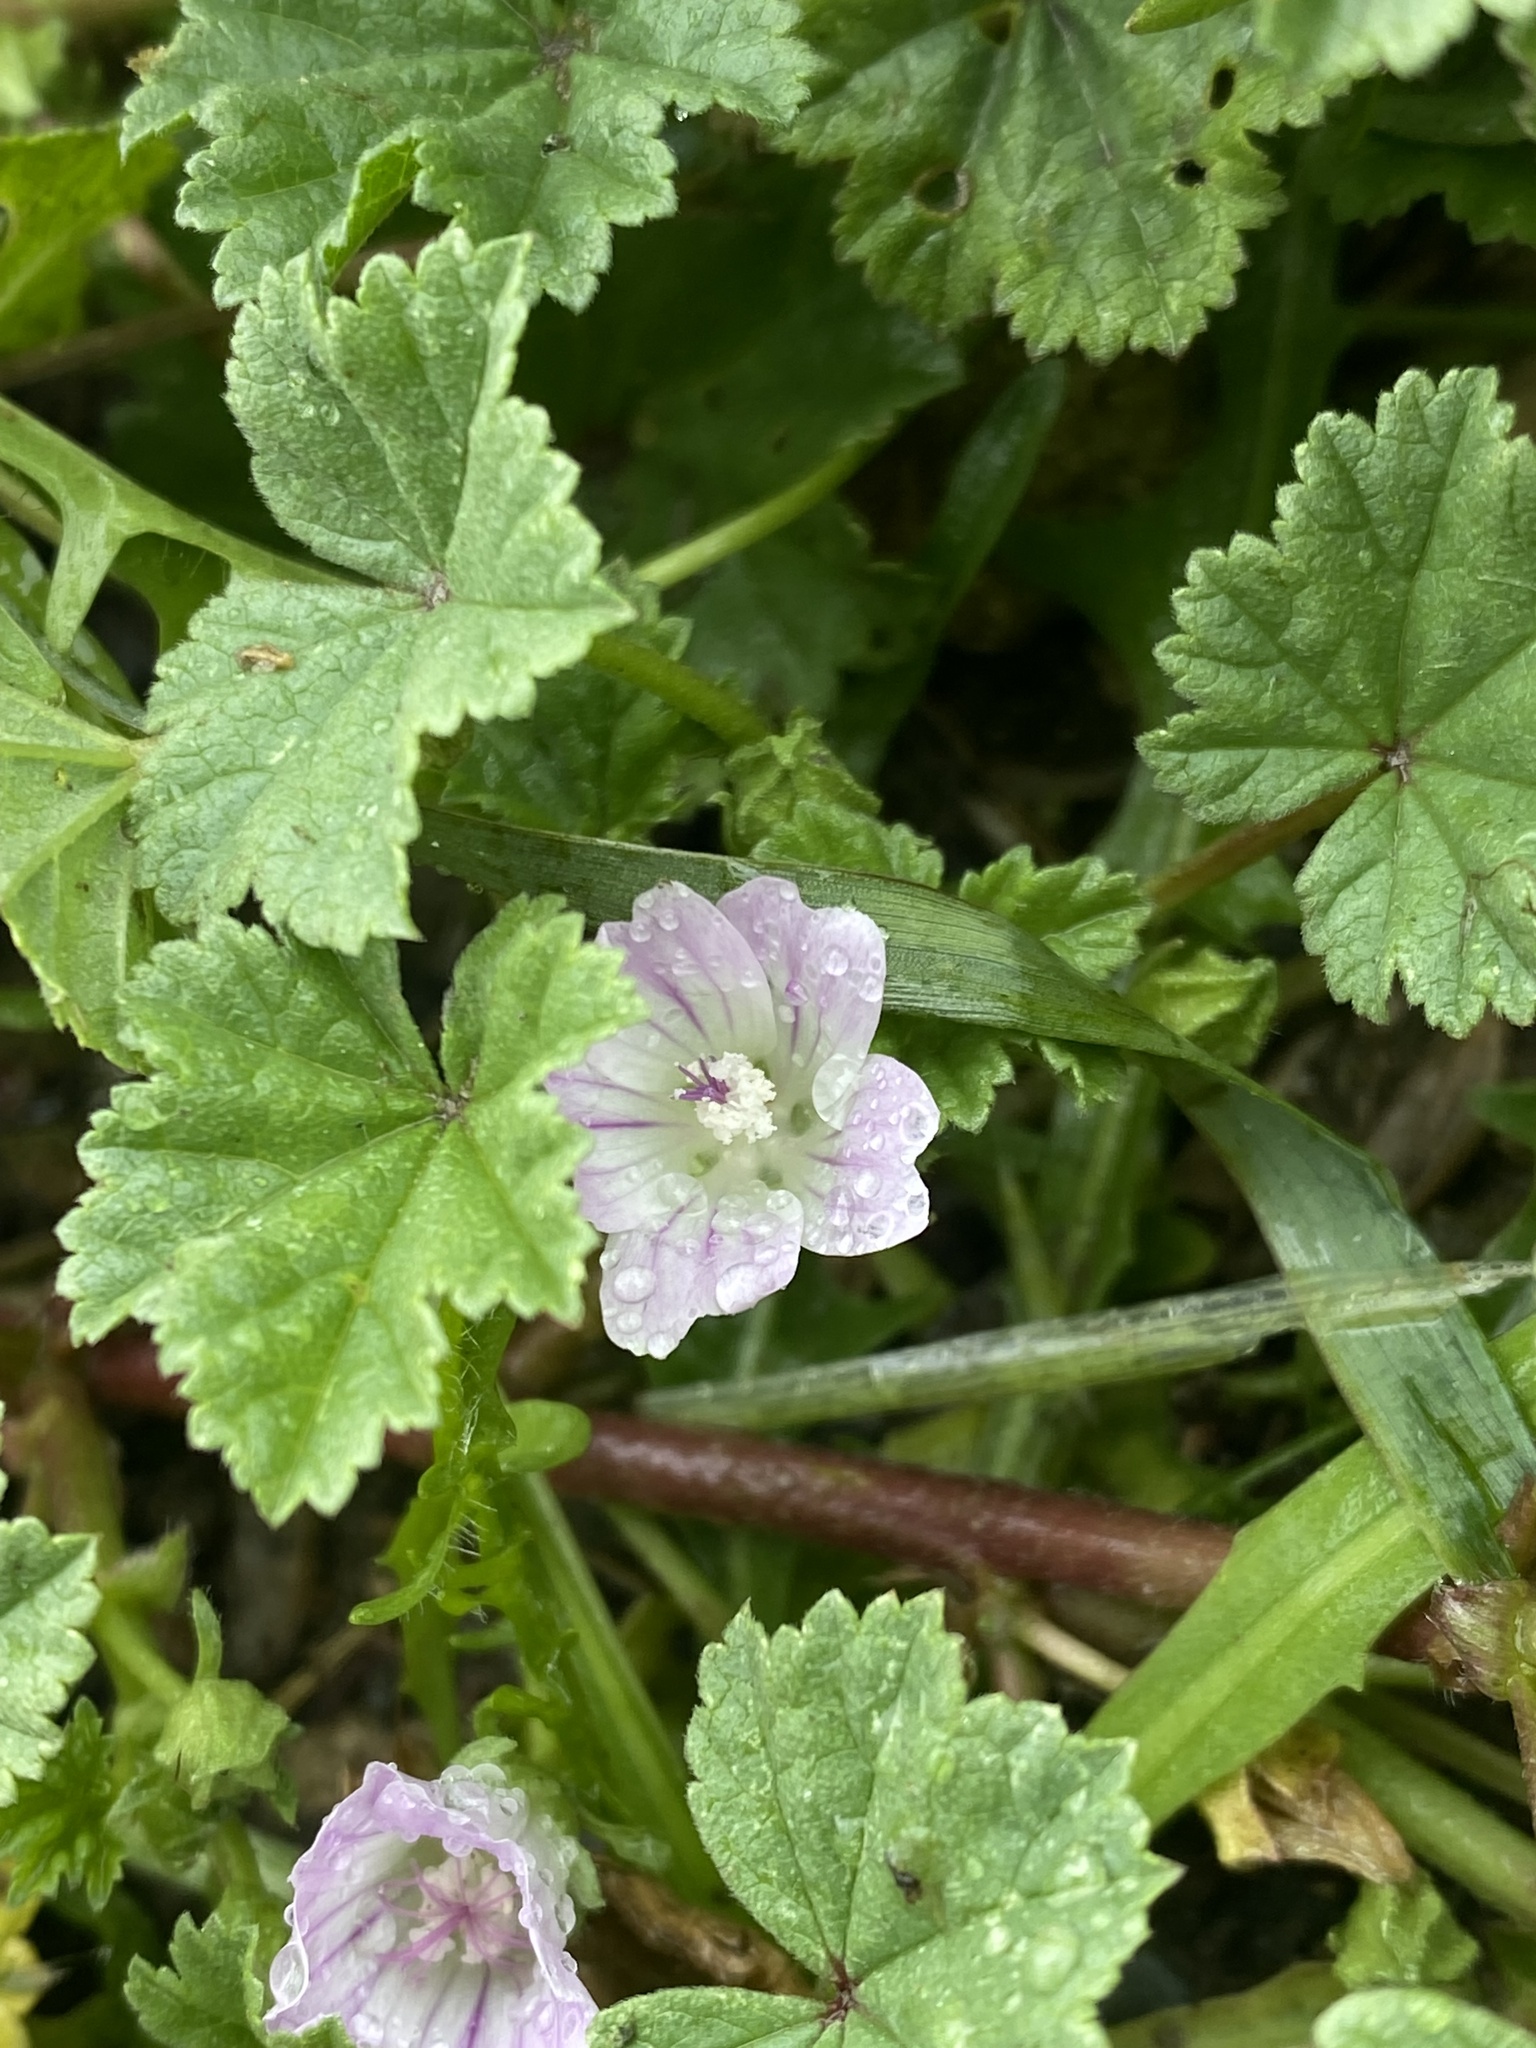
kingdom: Plantae
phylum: Tracheophyta
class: Magnoliopsida
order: Malvales
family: Malvaceae
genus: Malva
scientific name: Malva neglecta
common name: Common mallow
